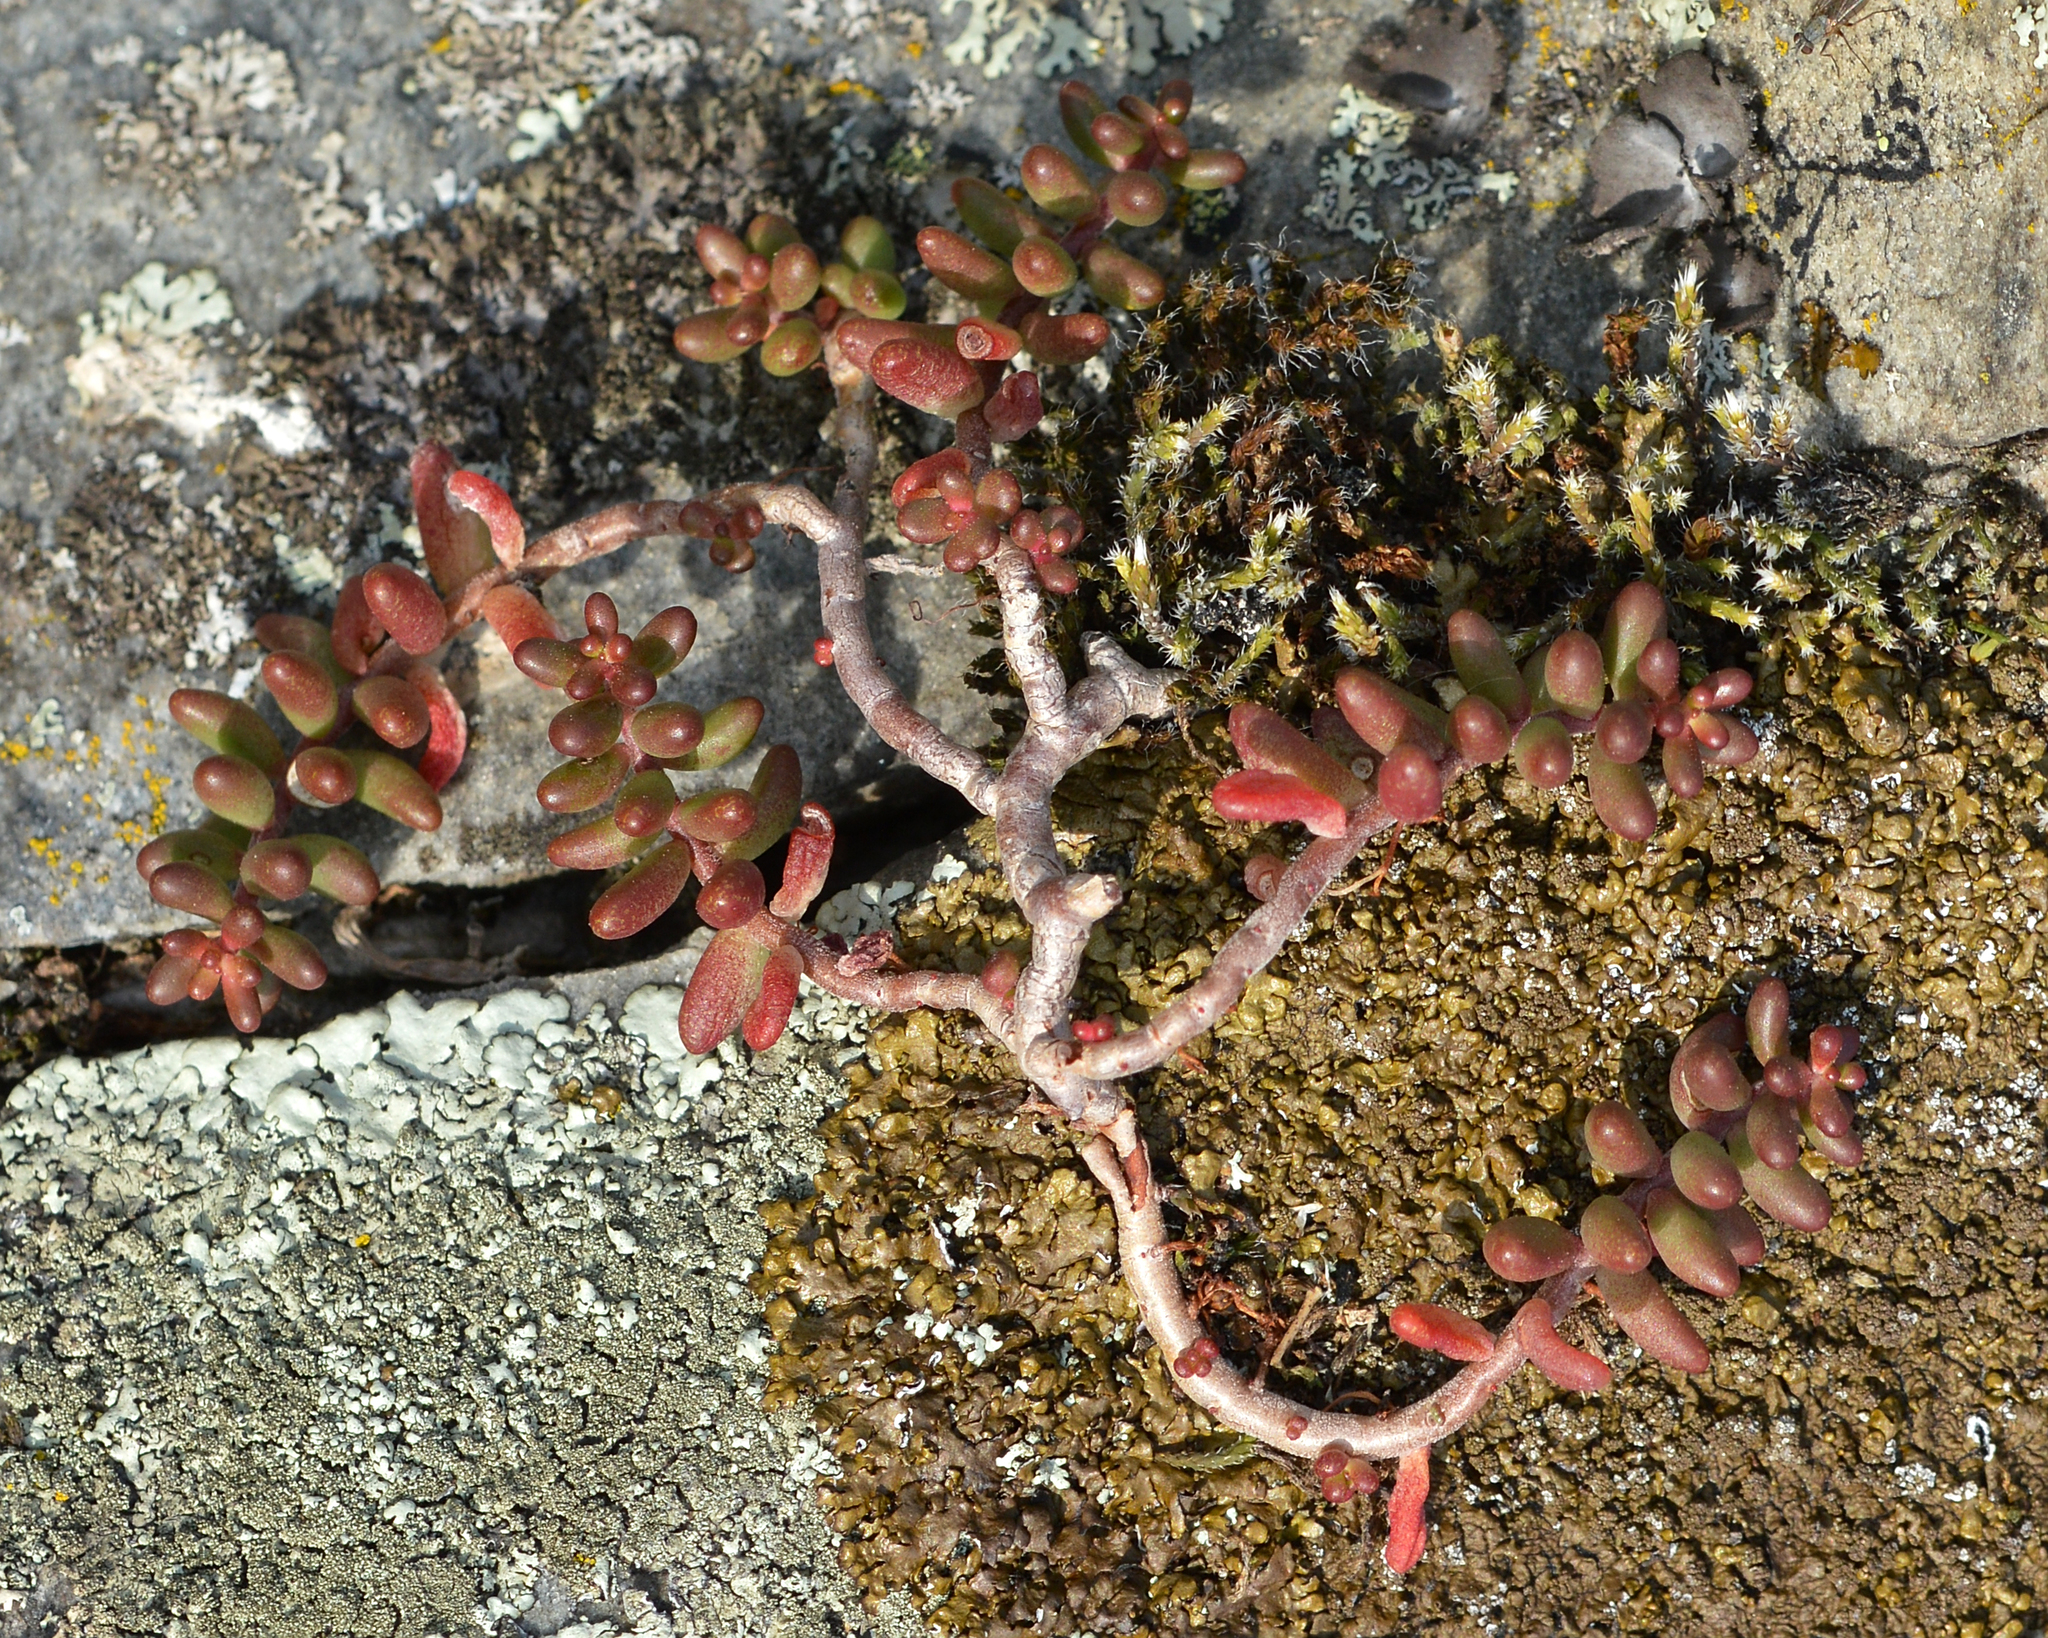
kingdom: Plantae
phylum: Tracheophyta
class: Magnoliopsida
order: Saxifragales
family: Crassulaceae
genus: Sedum
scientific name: Sedum album
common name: White stonecrop
